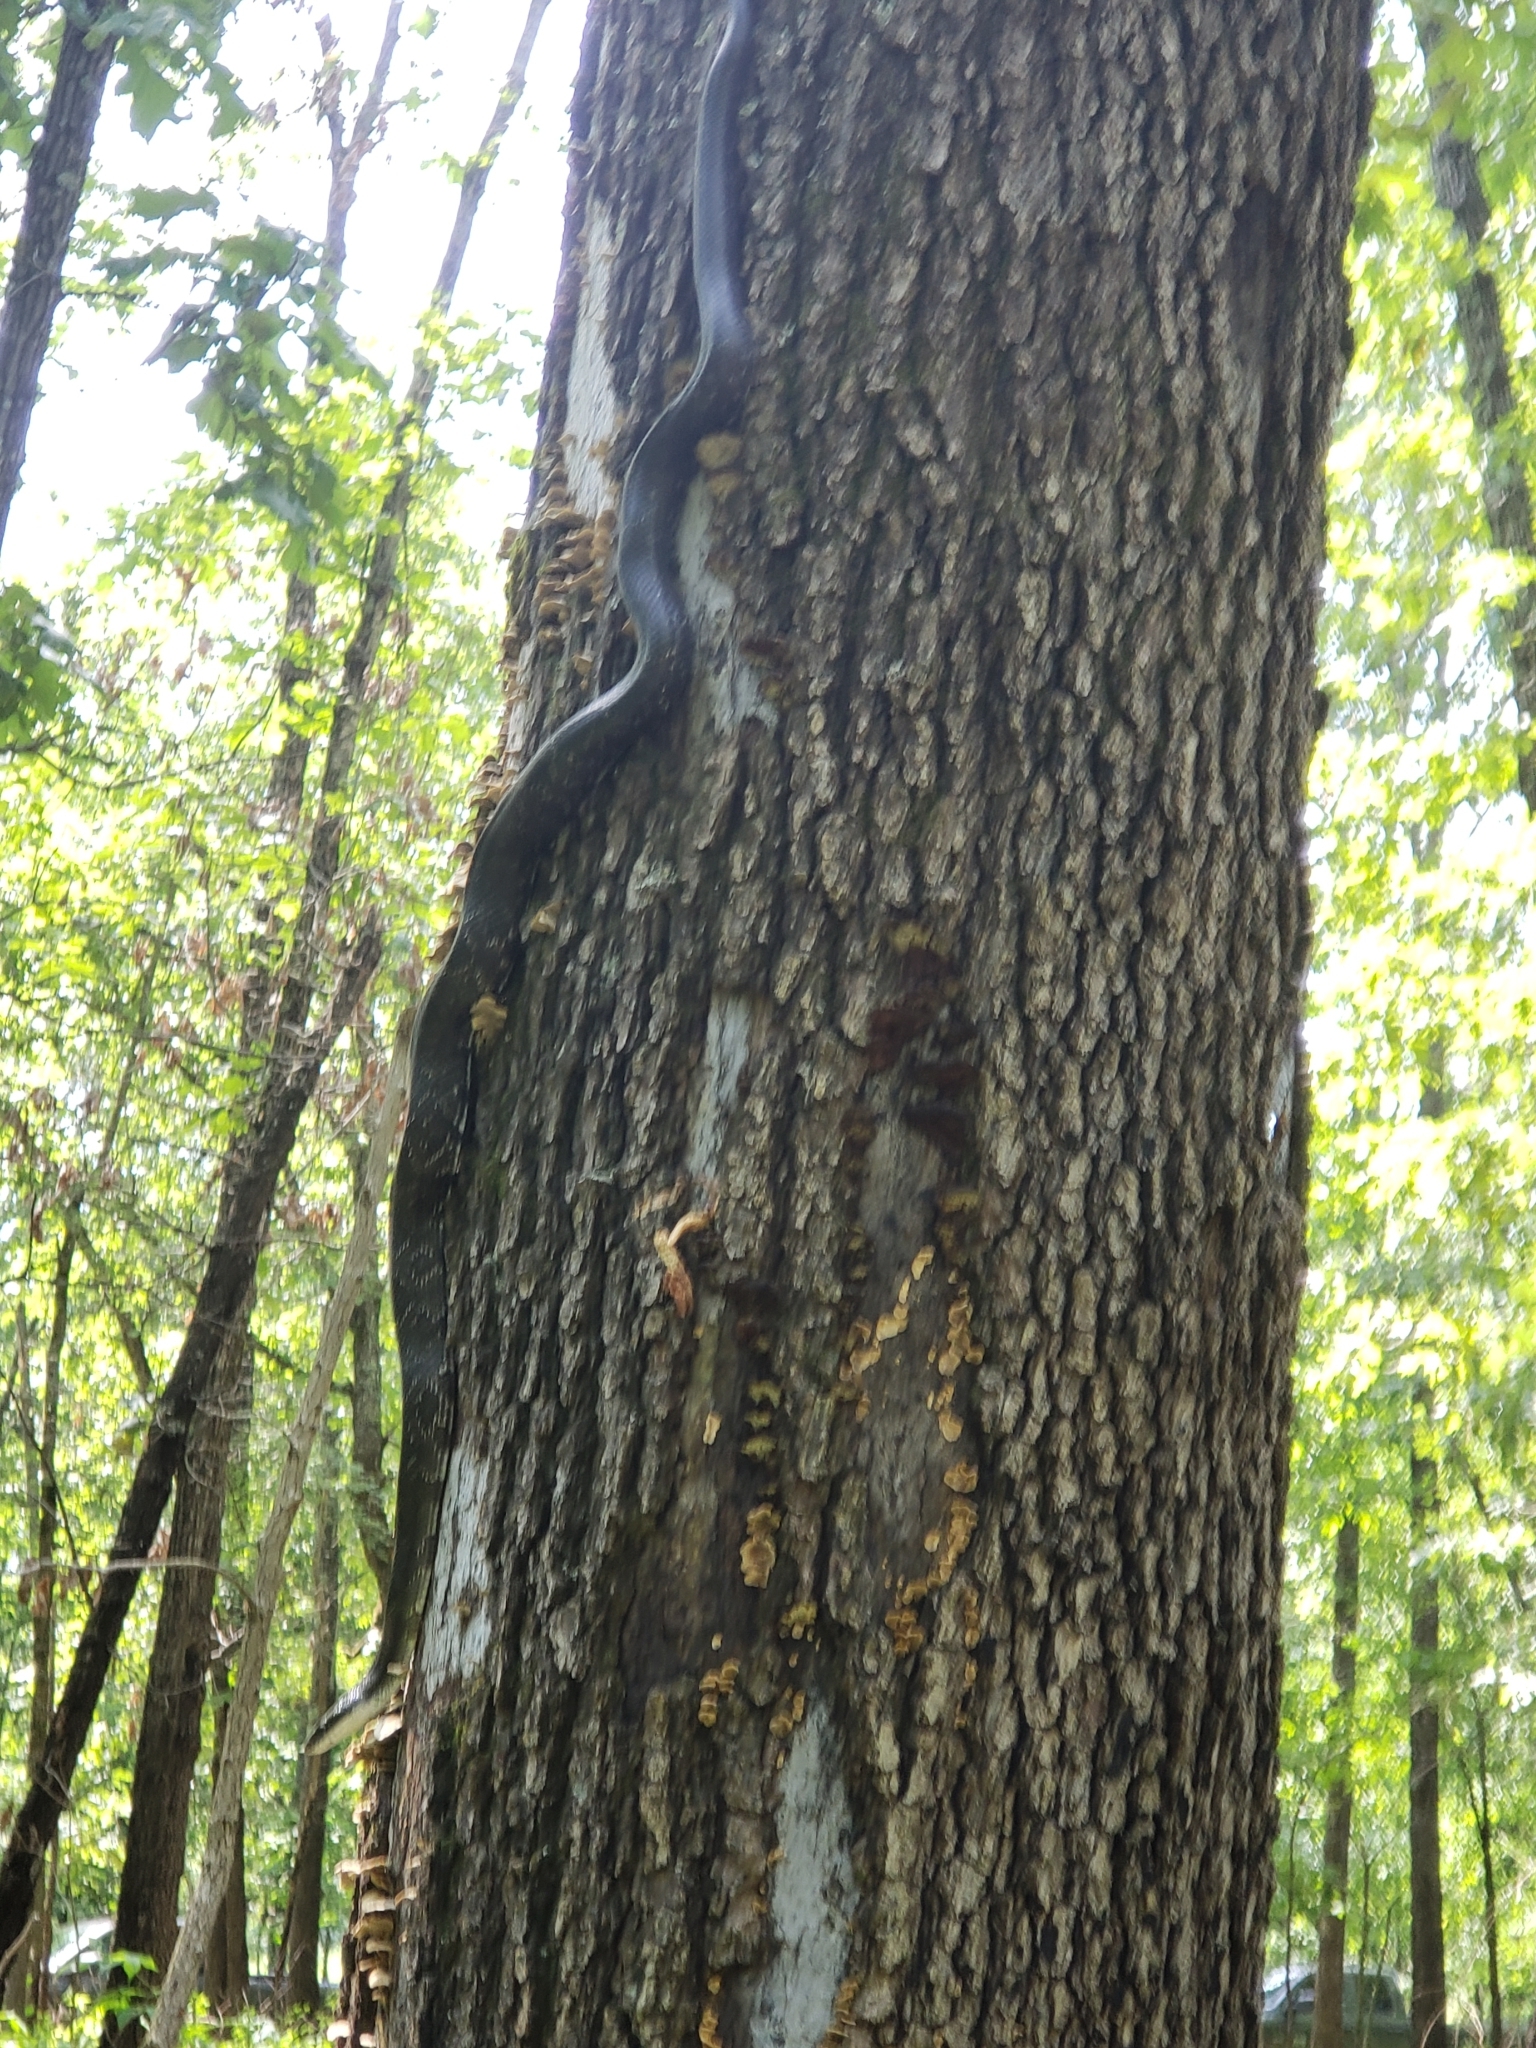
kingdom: Animalia
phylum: Chordata
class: Squamata
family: Colubridae
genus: Pantherophis
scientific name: Pantherophis obsoletus
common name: Black rat snake
